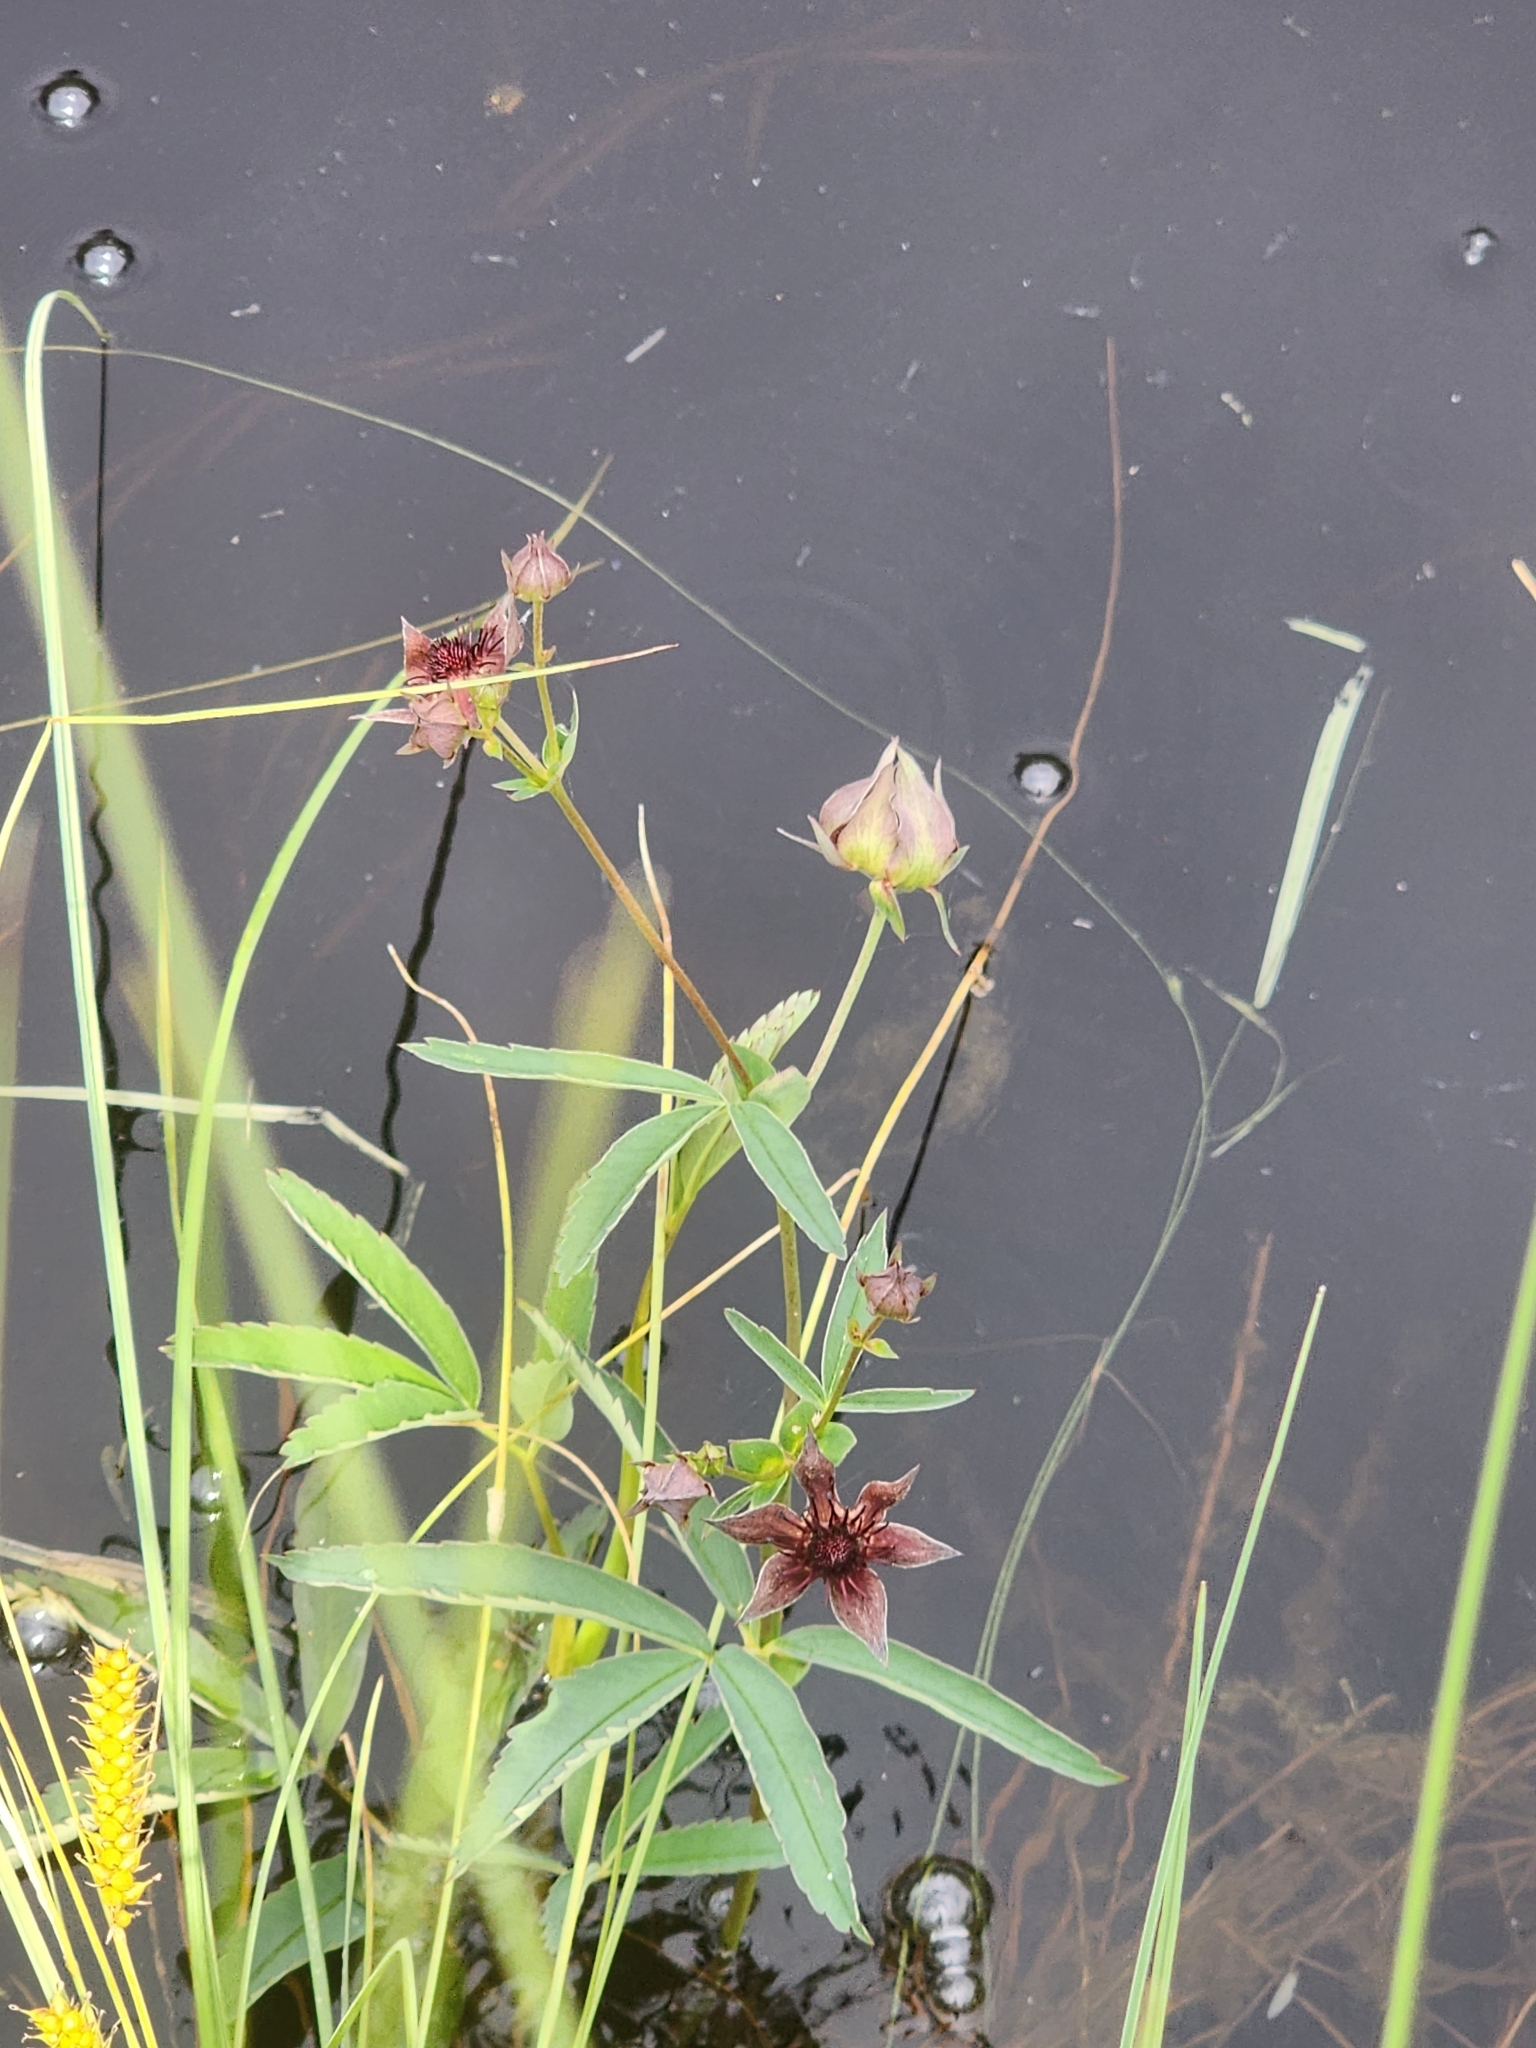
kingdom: Plantae
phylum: Tracheophyta
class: Magnoliopsida
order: Rosales
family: Rosaceae
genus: Comarum
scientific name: Comarum palustre
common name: Marsh cinquefoil
